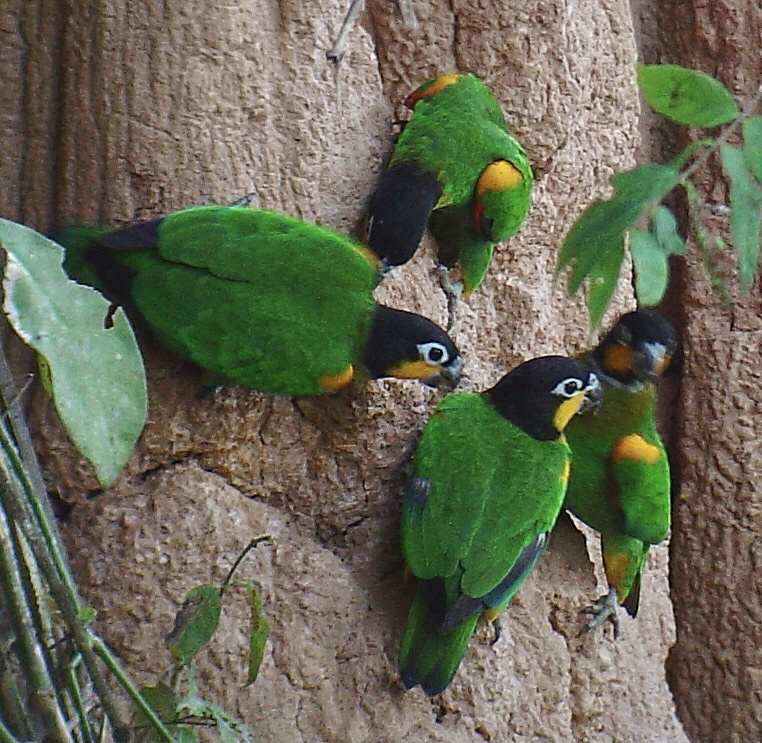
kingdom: Animalia
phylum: Chordata
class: Aves
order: Psittaciformes
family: Psittacidae
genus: Pionopsitta
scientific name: Pionopsitta barrabandi
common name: Orange-cheeked parrot
